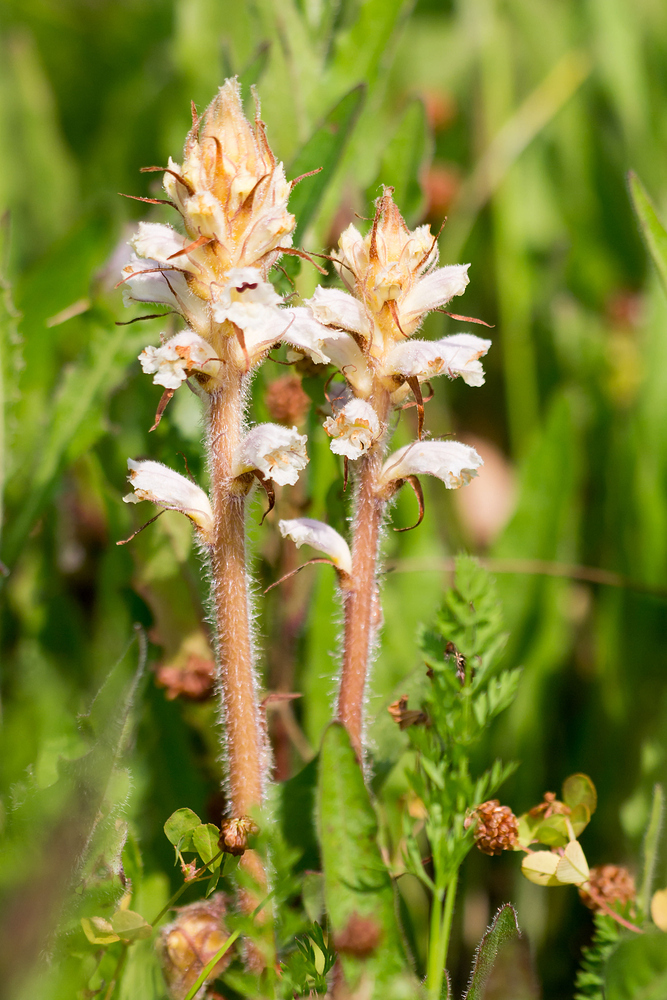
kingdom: Plantae
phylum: Tracheophyta
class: Magnoliopsida
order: Lamiales
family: Orobanchaceae
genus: Orobanche
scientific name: Orobanche picridis
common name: Oxtongue broomrape
